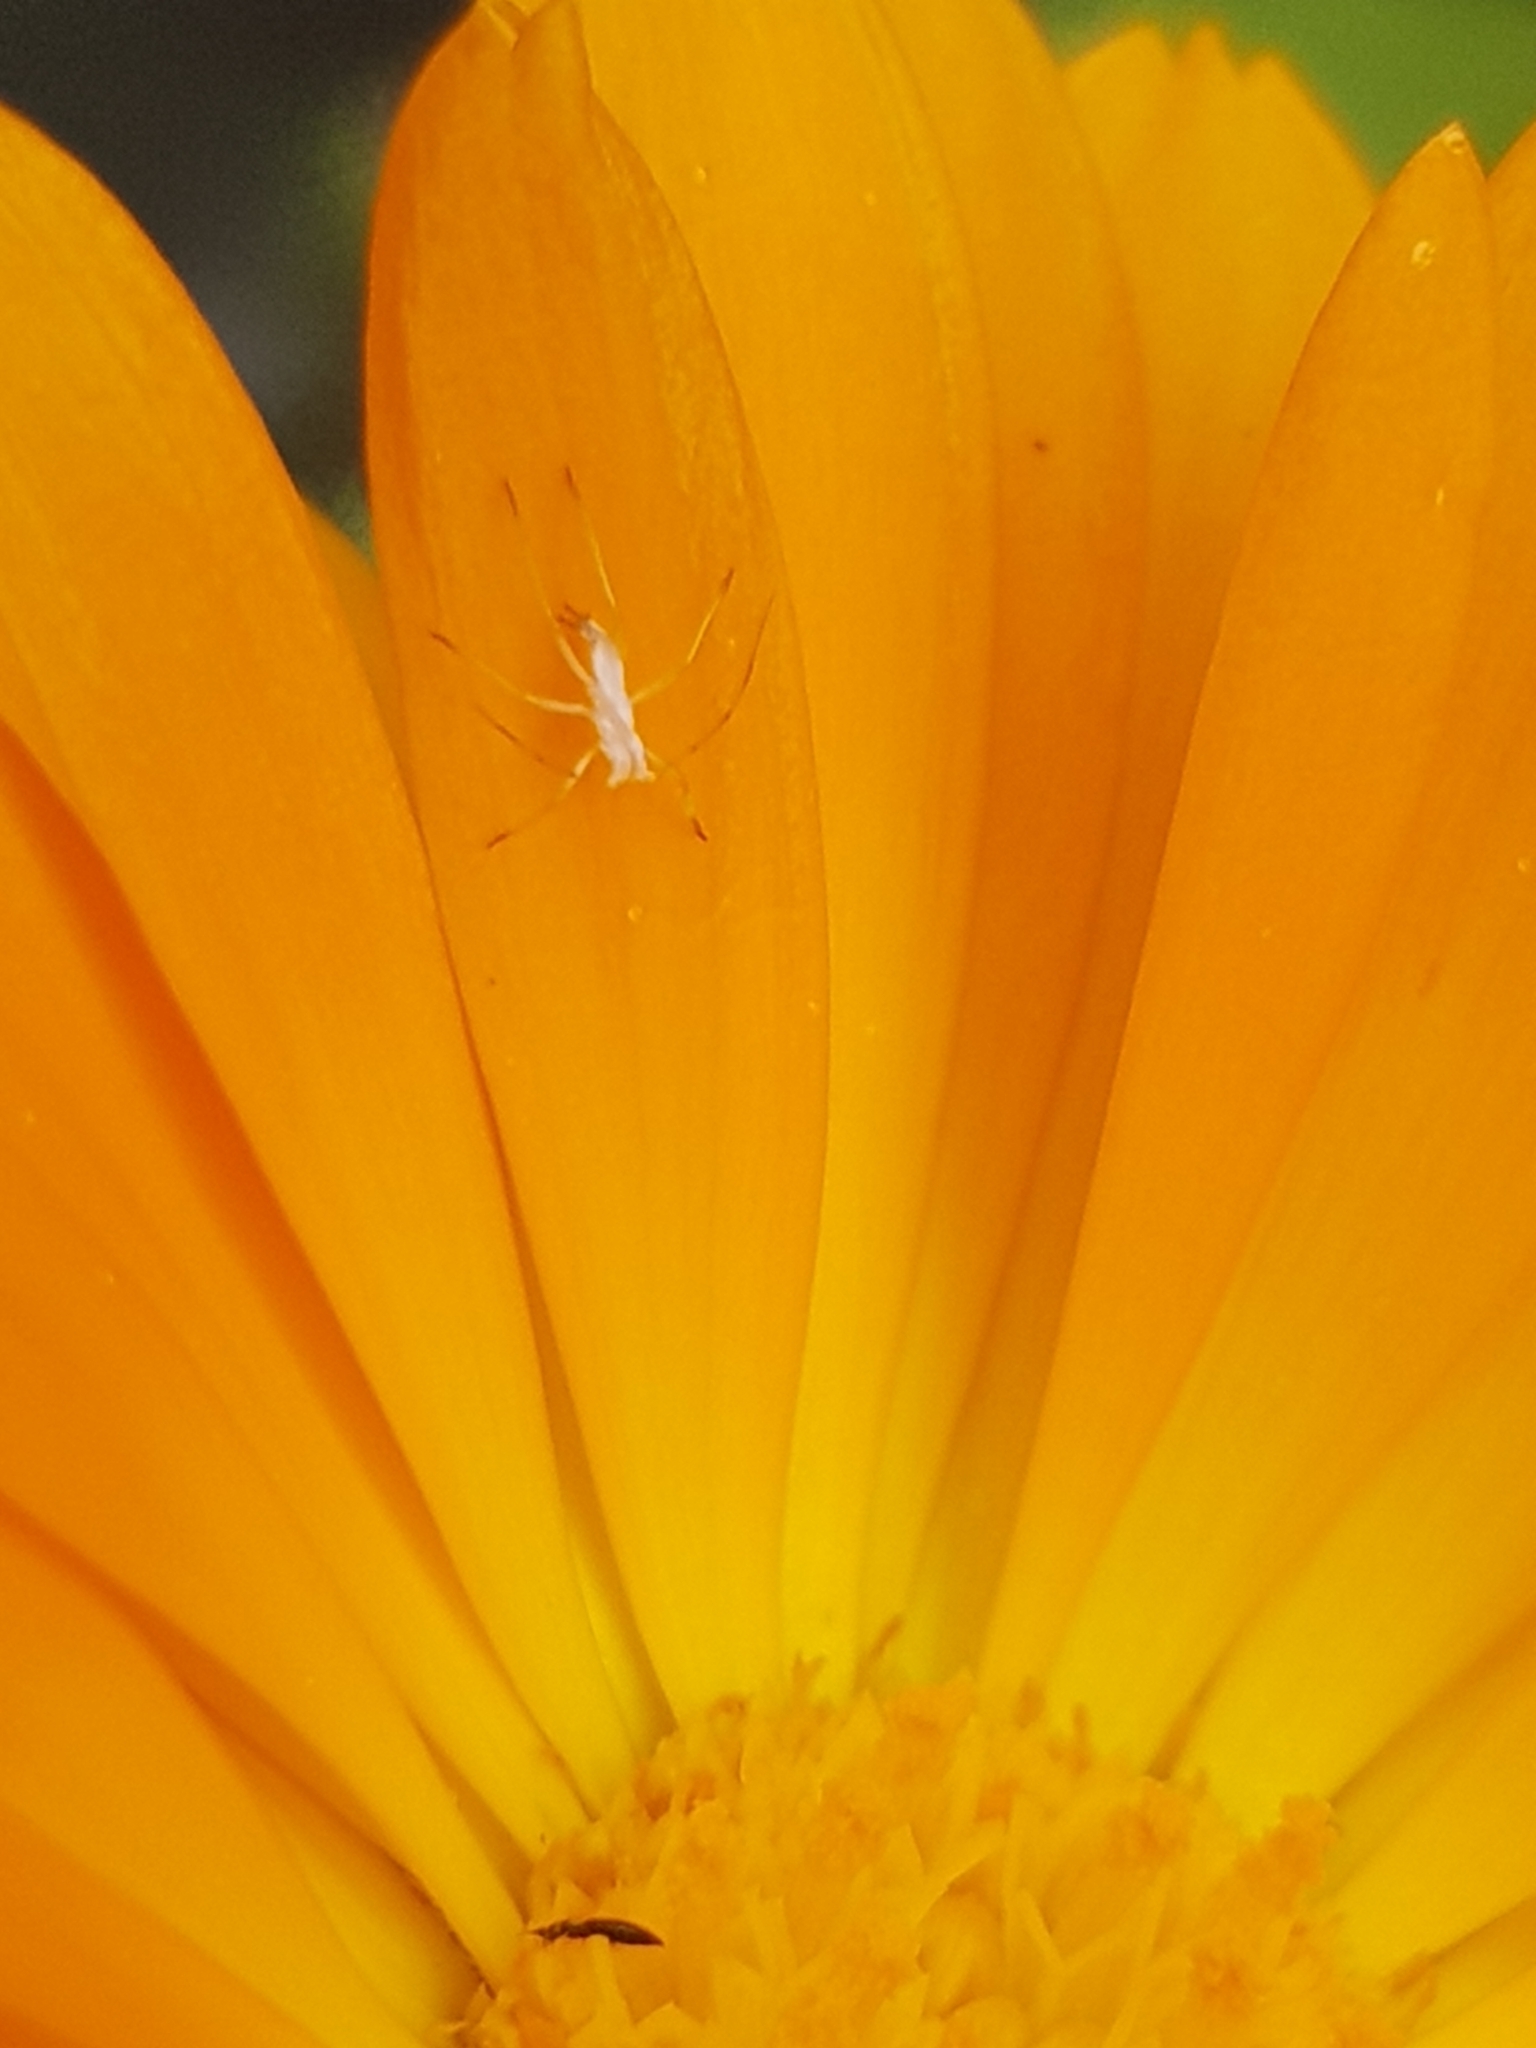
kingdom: Animalia
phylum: Arthropoda
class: Insecta
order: Orthoptera
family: Tettigoniidae
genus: Caedicia
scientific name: Caedicia simplex
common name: Common garden katydid
